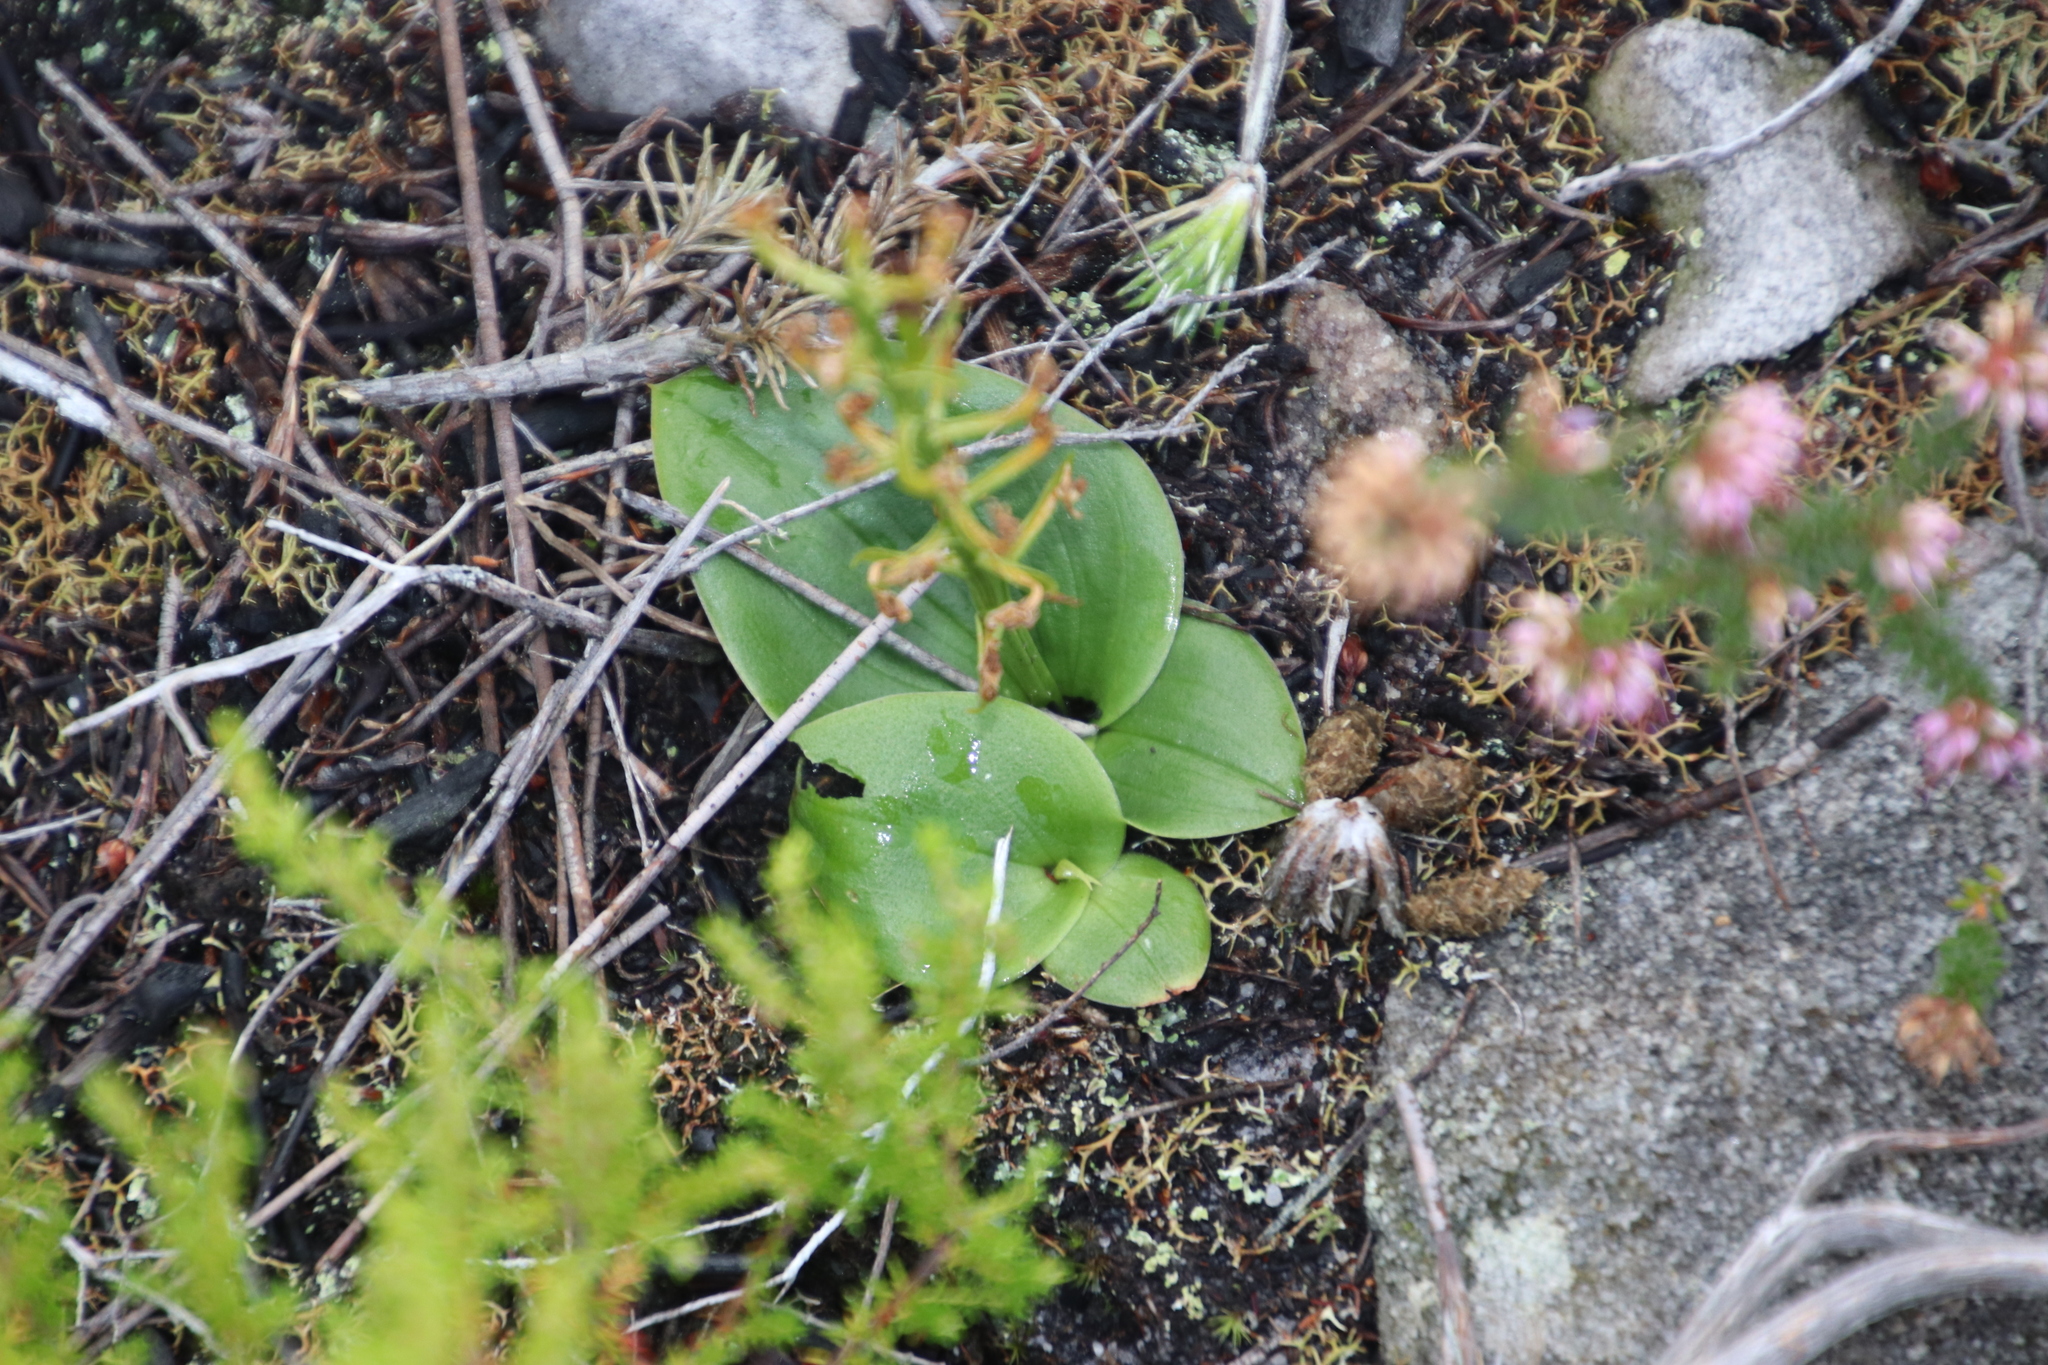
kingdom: Plantae
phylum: Tracheophyta
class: Liliopsida
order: Asparagales
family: Orchidaceae
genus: Liparis
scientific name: Liparis capensis
